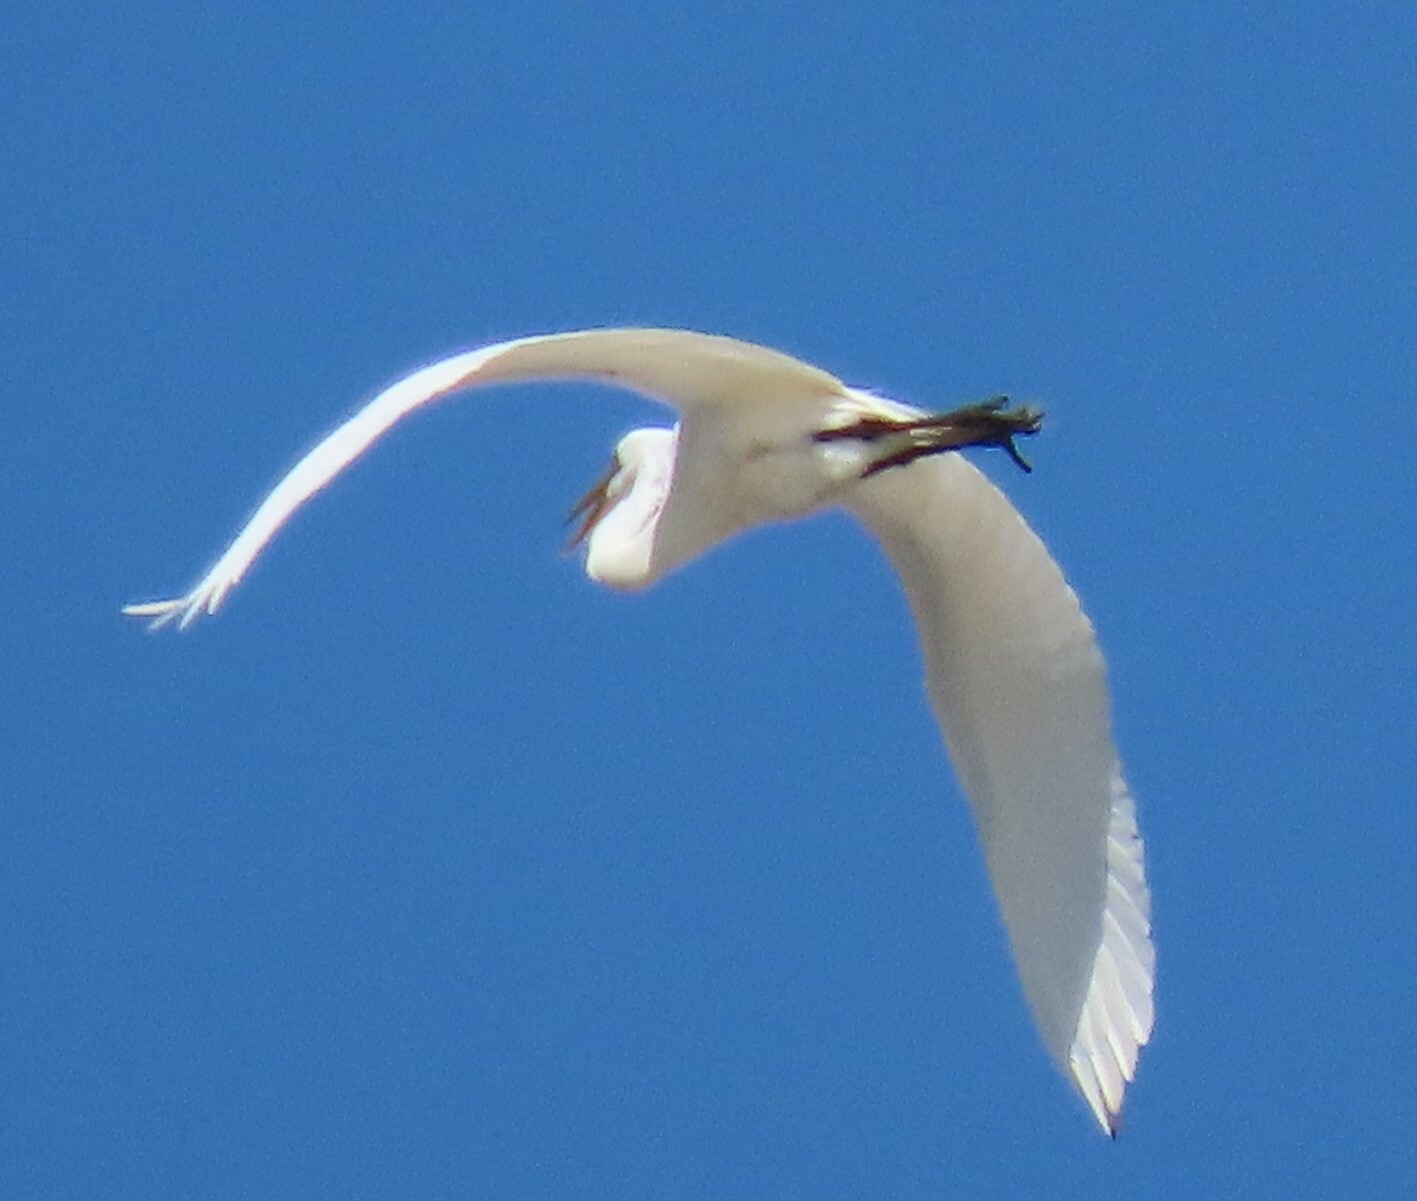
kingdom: Animalia
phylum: Chordata
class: Aves
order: Pelecaniformes
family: Ardeidae
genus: Ardea
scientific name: Ardea alba
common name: Great egret
